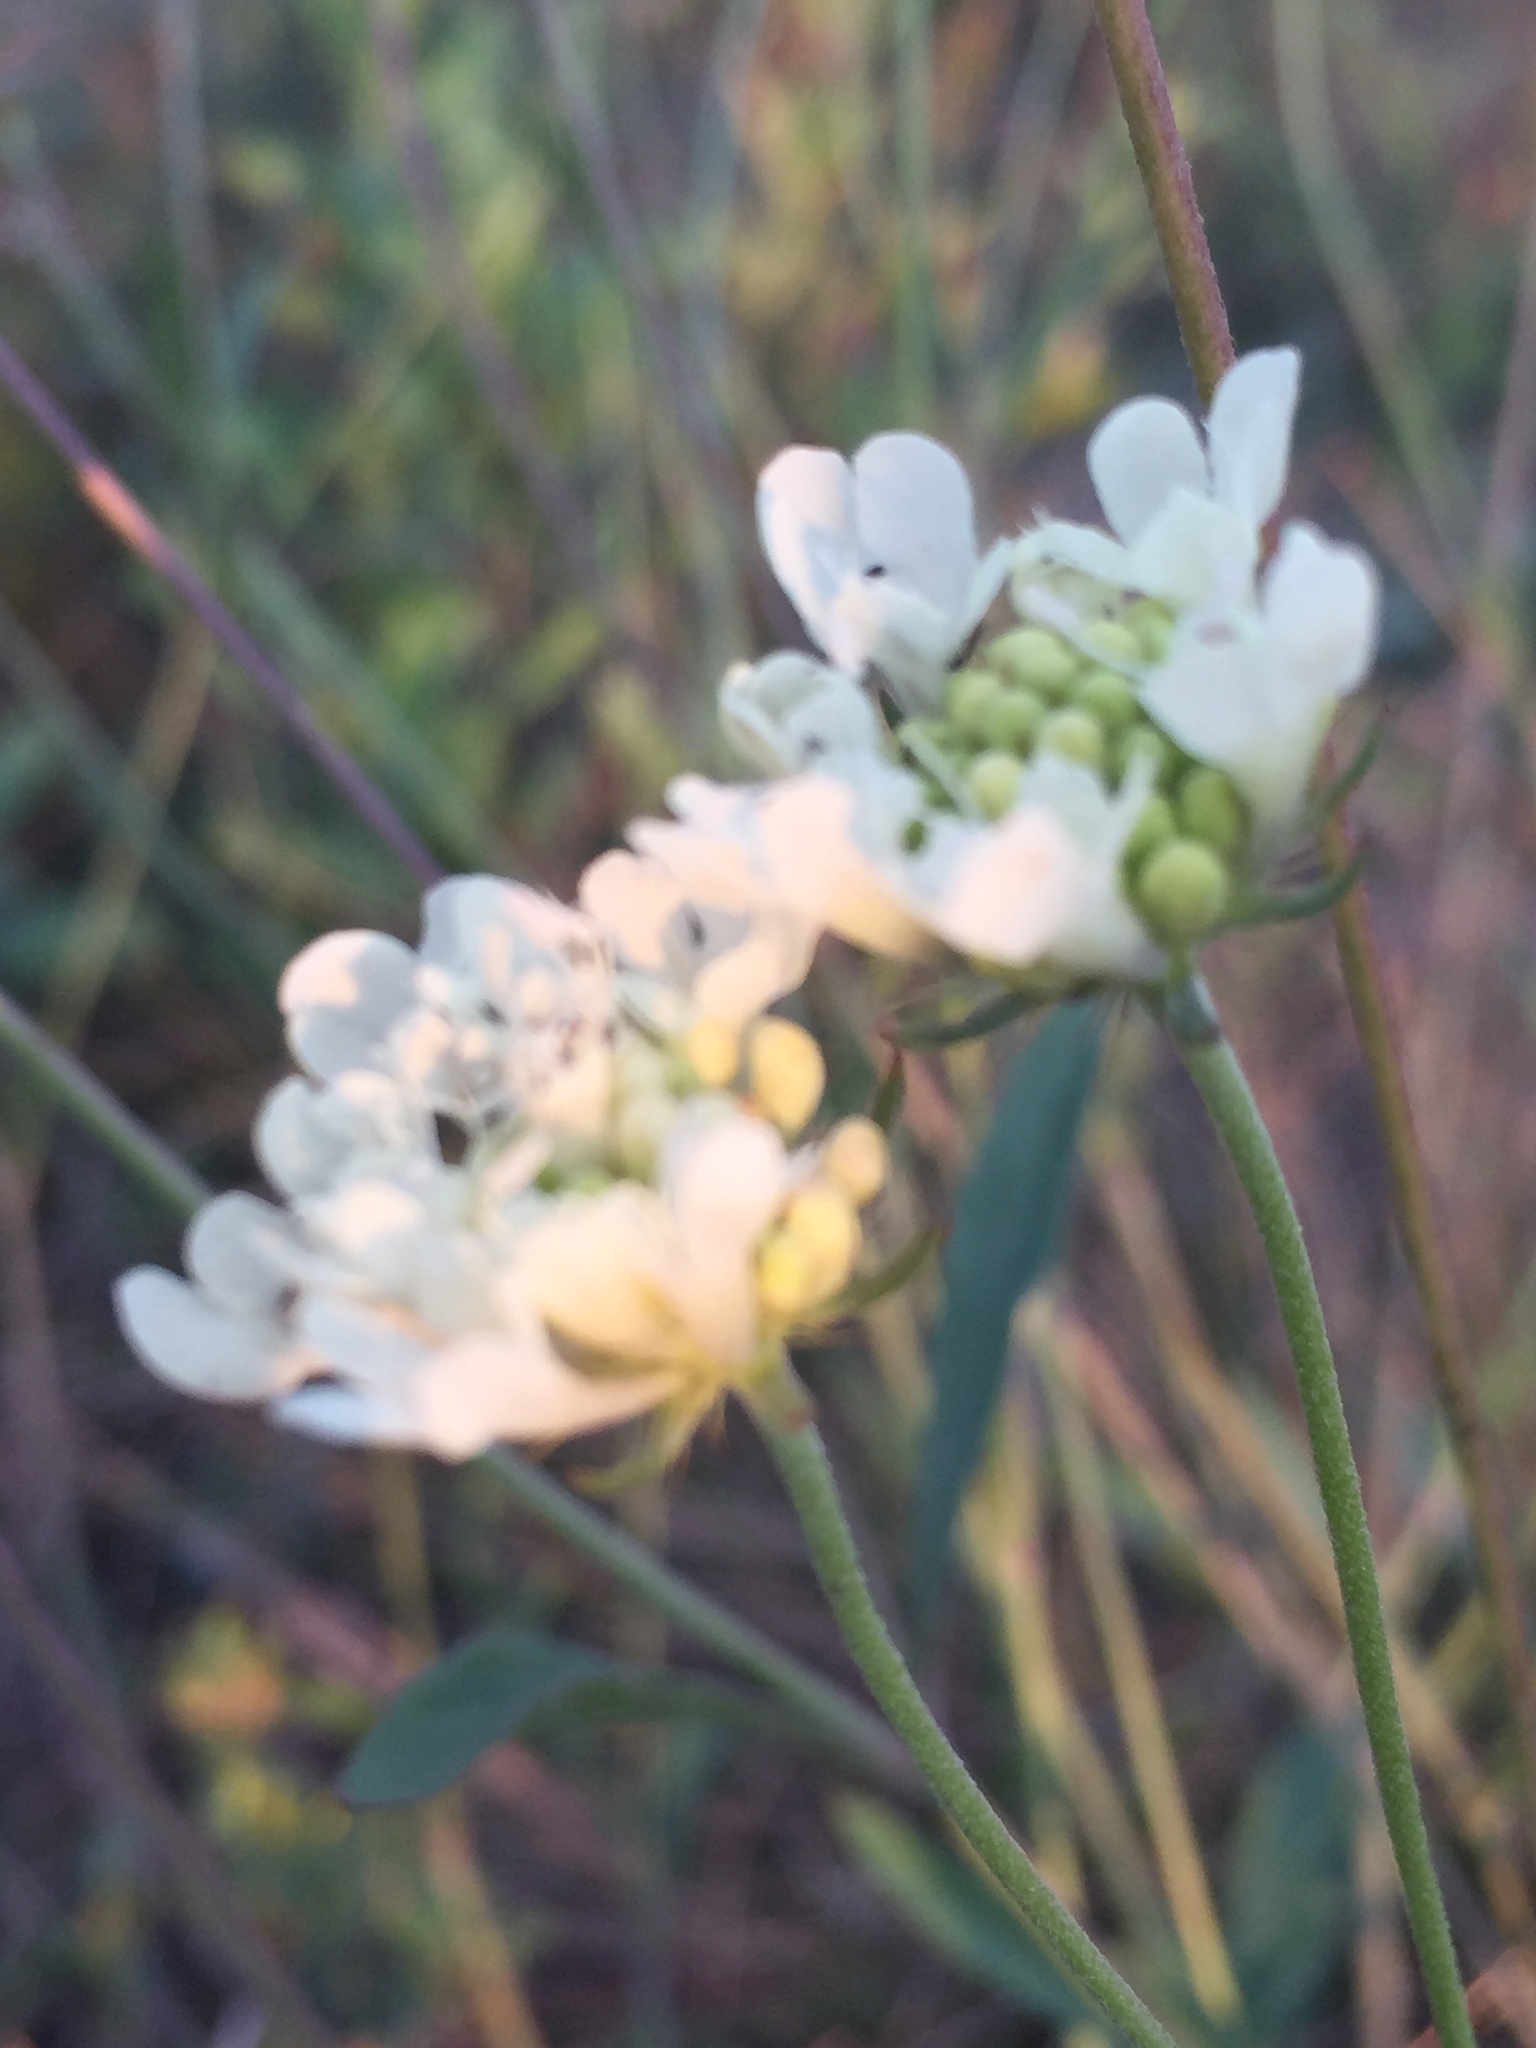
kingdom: Plantae
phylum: Tracheophyta
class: Magnoliopsida
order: Dipsacales
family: Caprifoliaceae
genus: Scabiosa
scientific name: Scabiosa ochroleuca
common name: Cream pincushions
